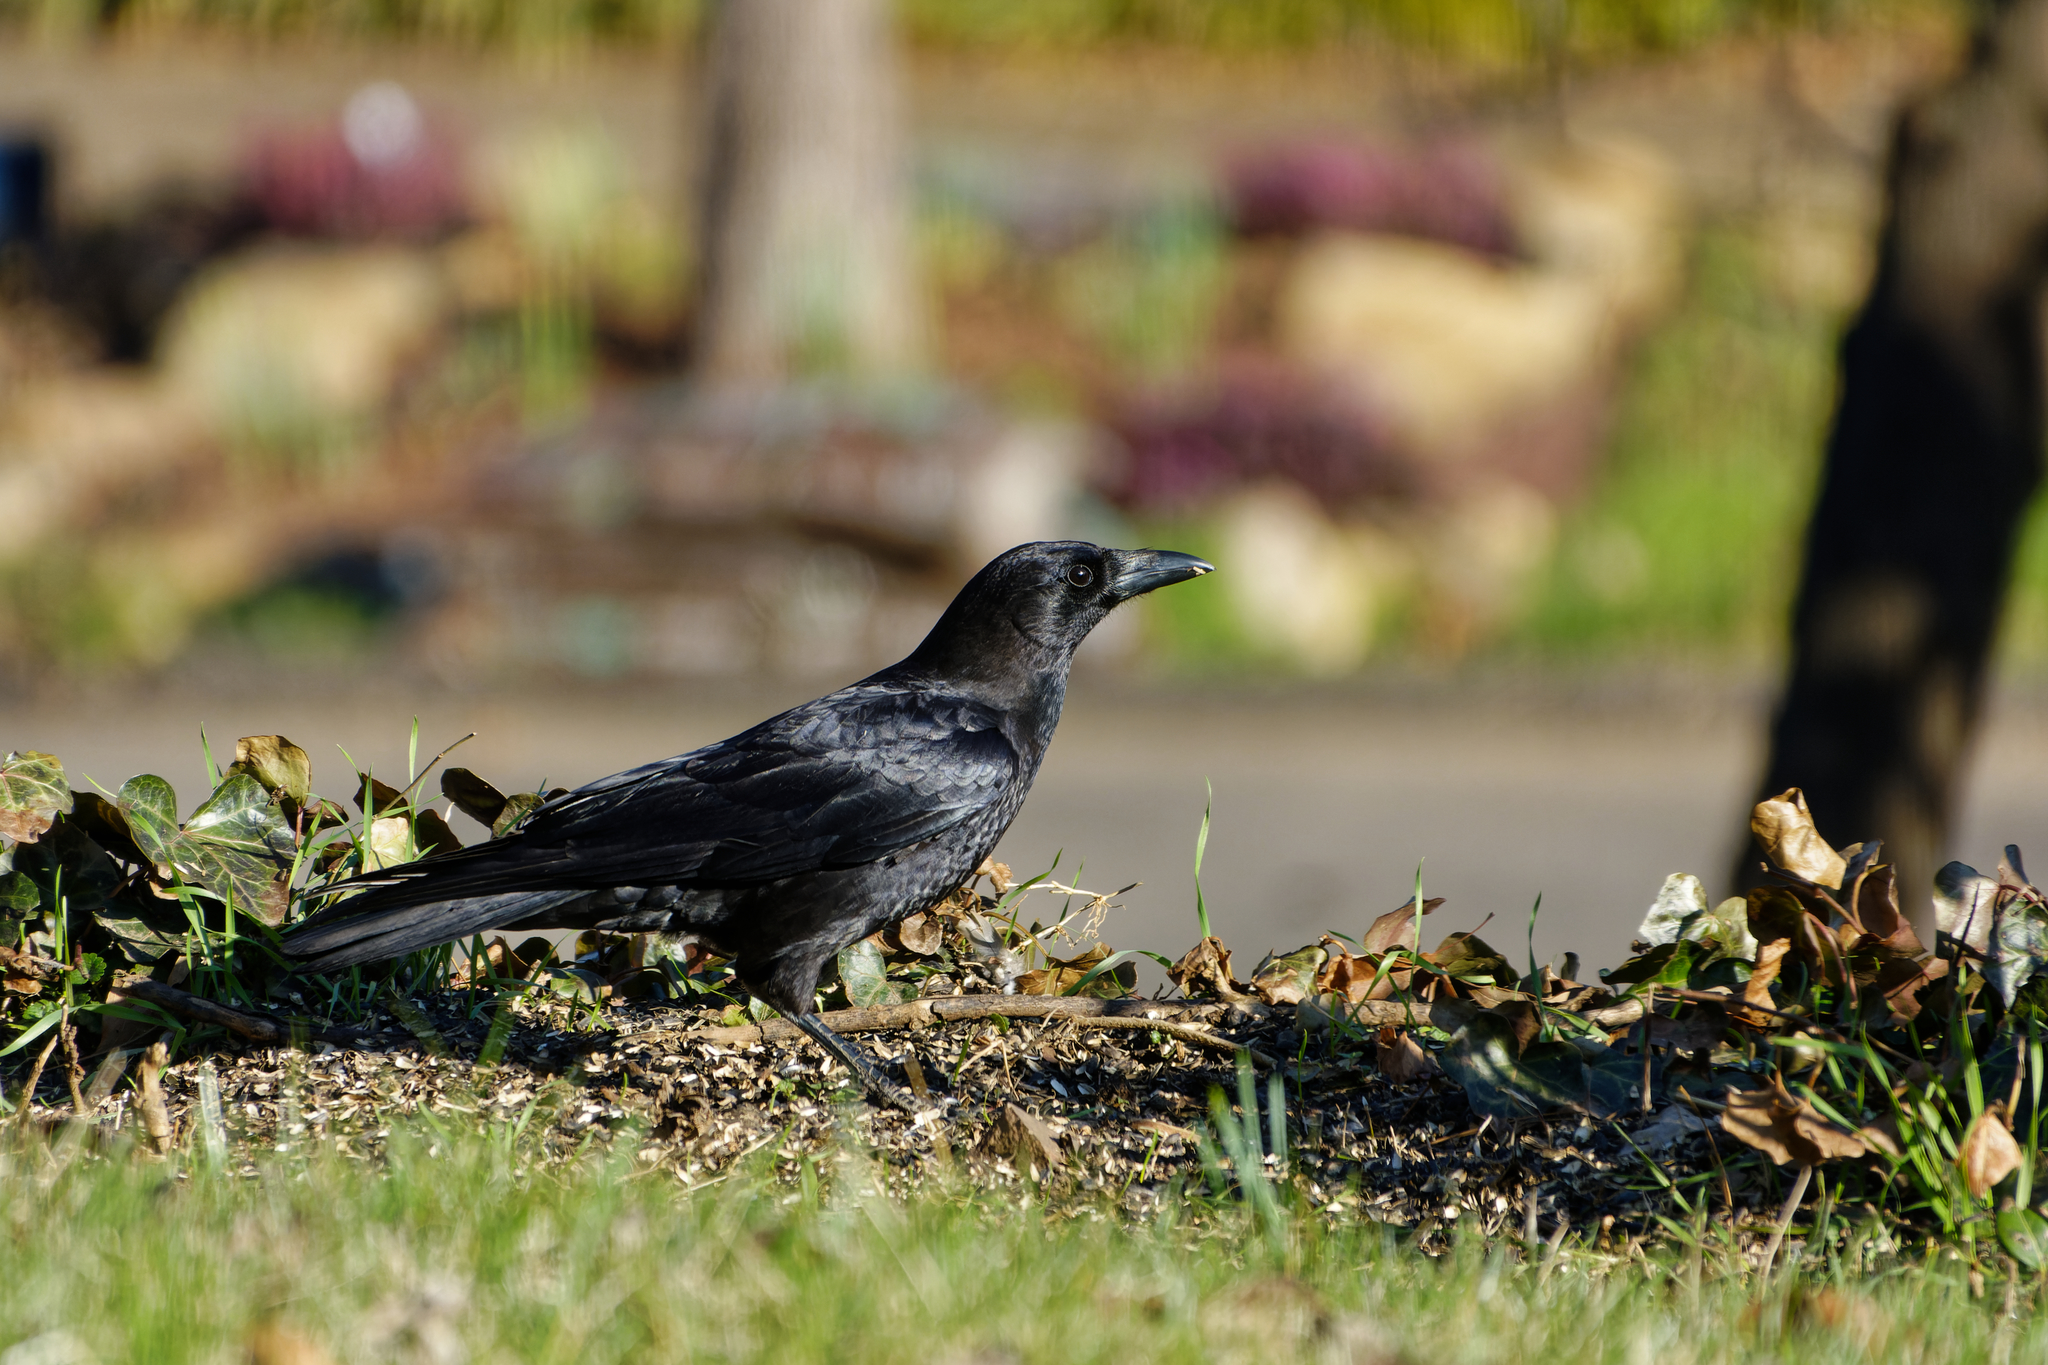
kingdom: Animalia
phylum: Chordata
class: Aves
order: Passeriformes
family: Corvidae
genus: Corvus
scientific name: Corvus brachyrhynchos
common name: American crow
